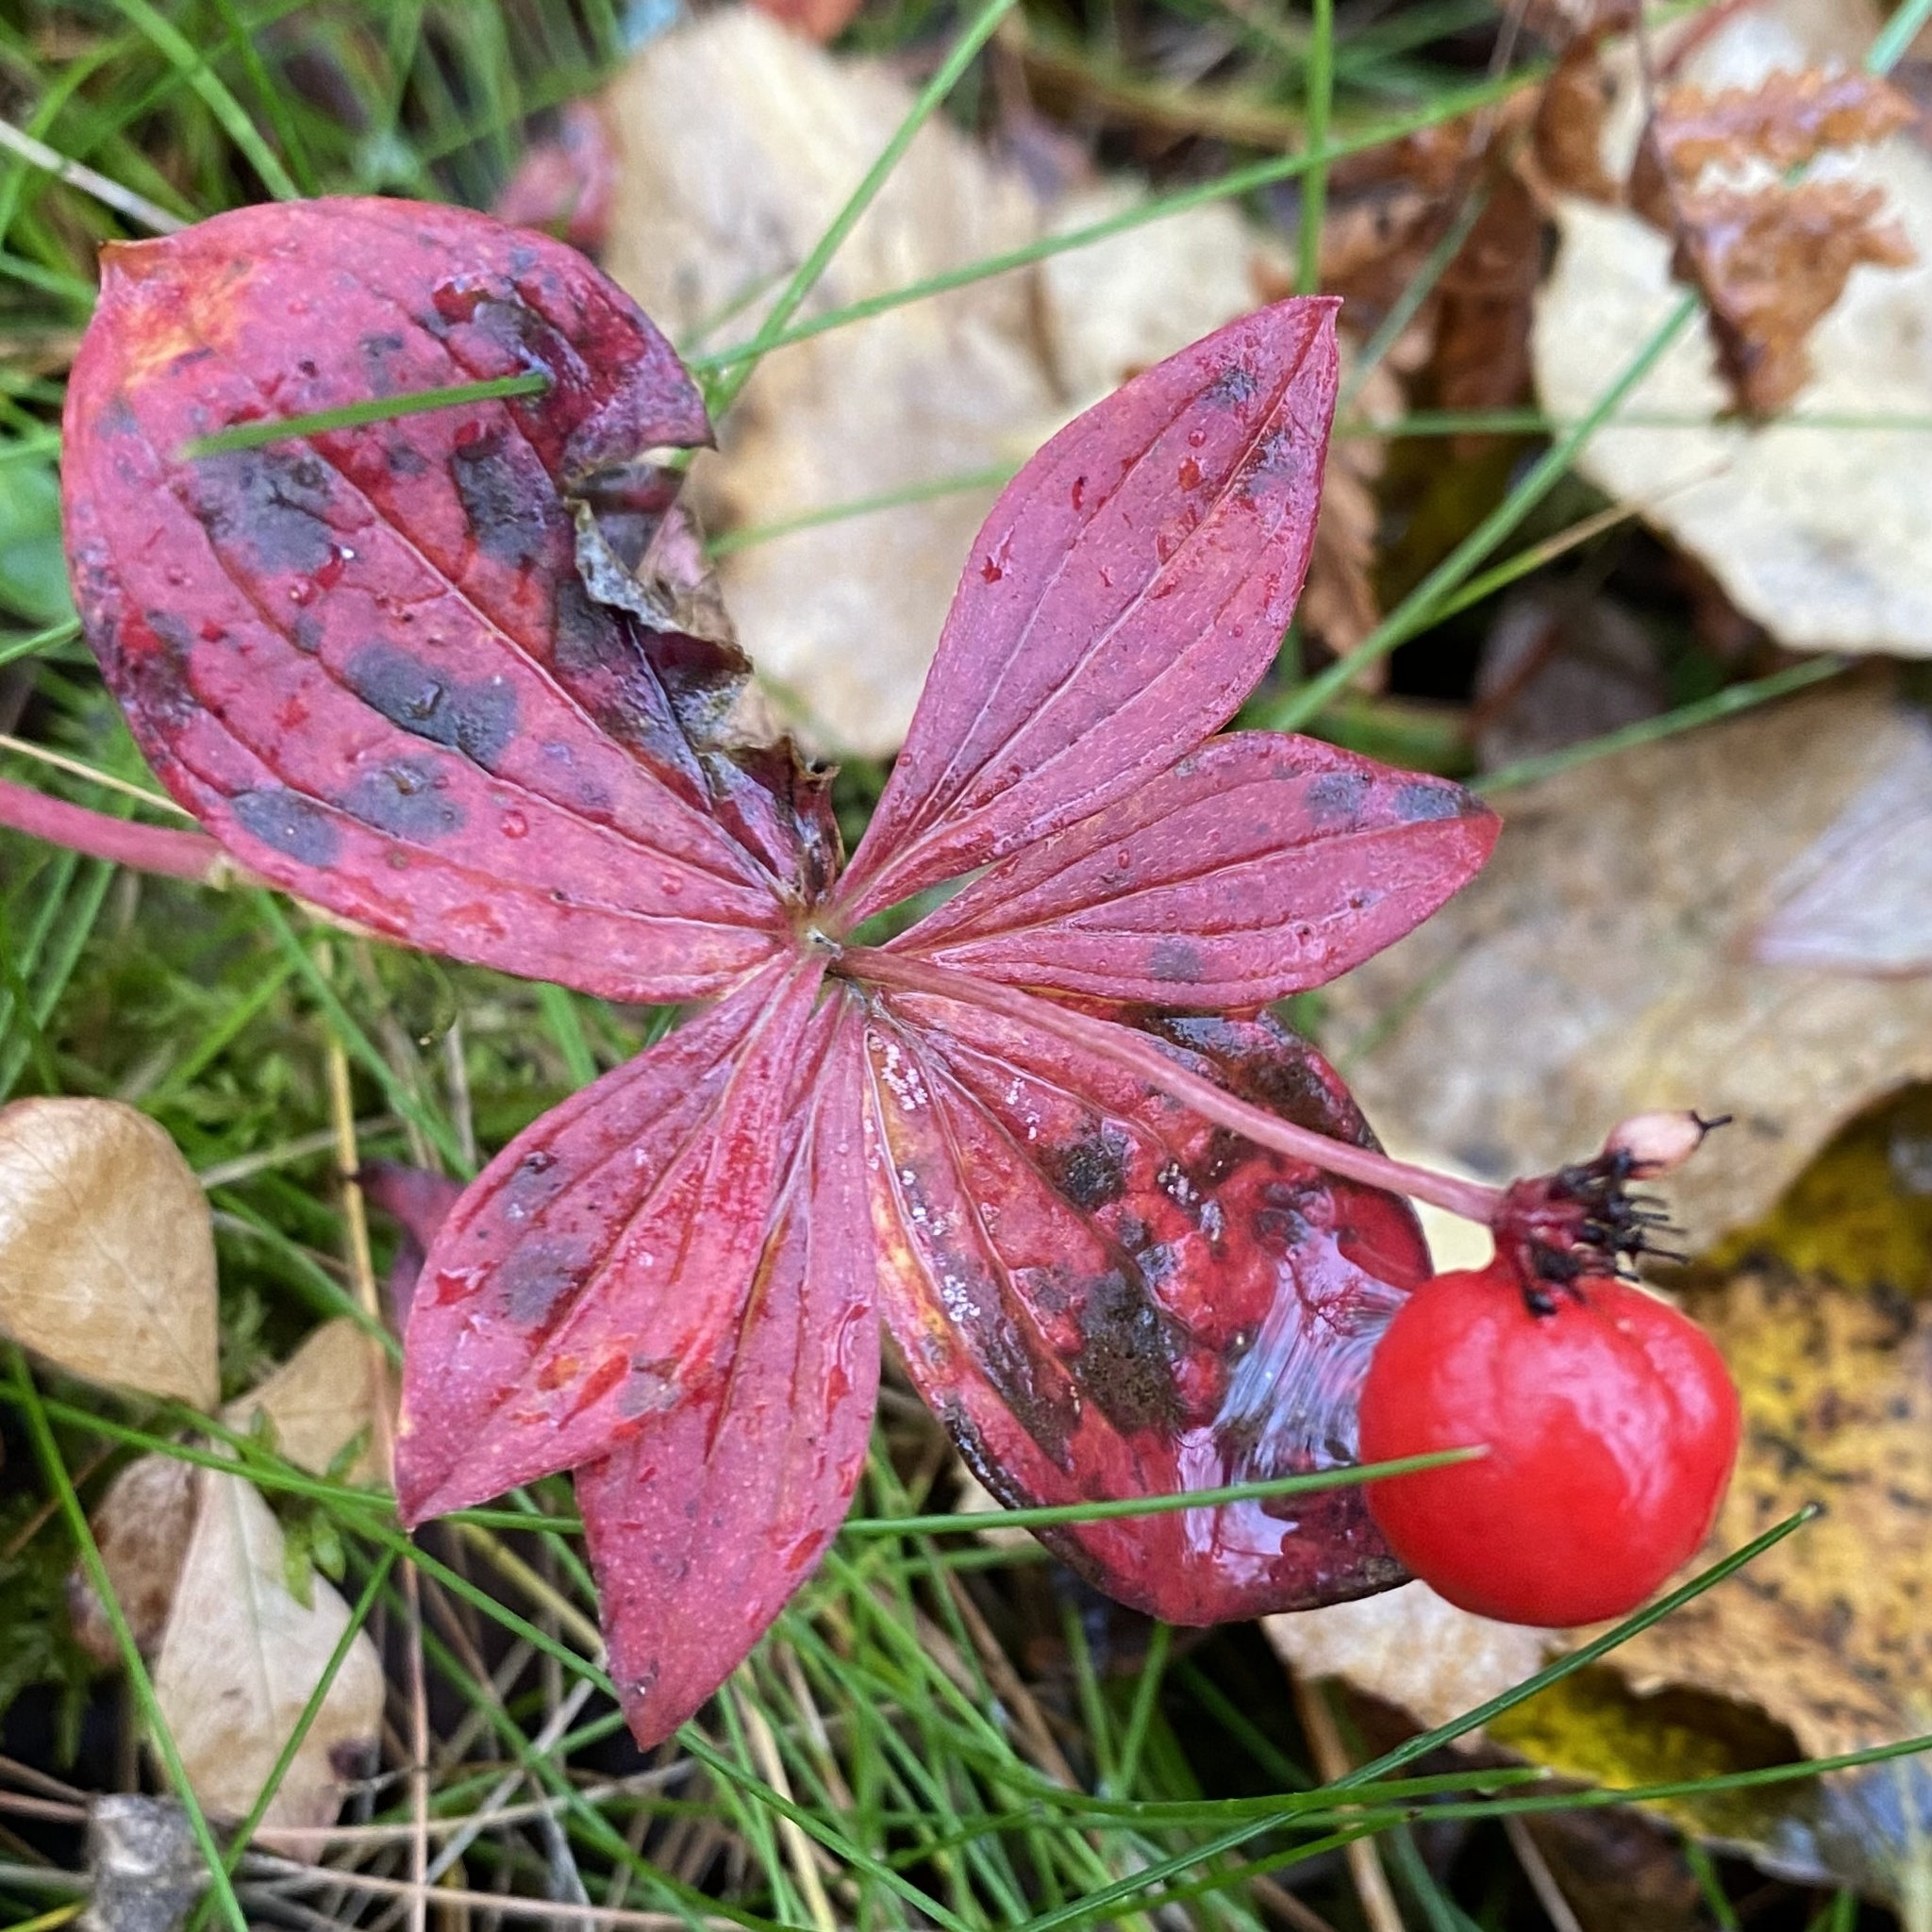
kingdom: Plantae
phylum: Tracheophyta
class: Magnoliopsida
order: Cornales
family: Cornaceae
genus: Cornus
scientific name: Cornus suecica
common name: Dwarf cornel
